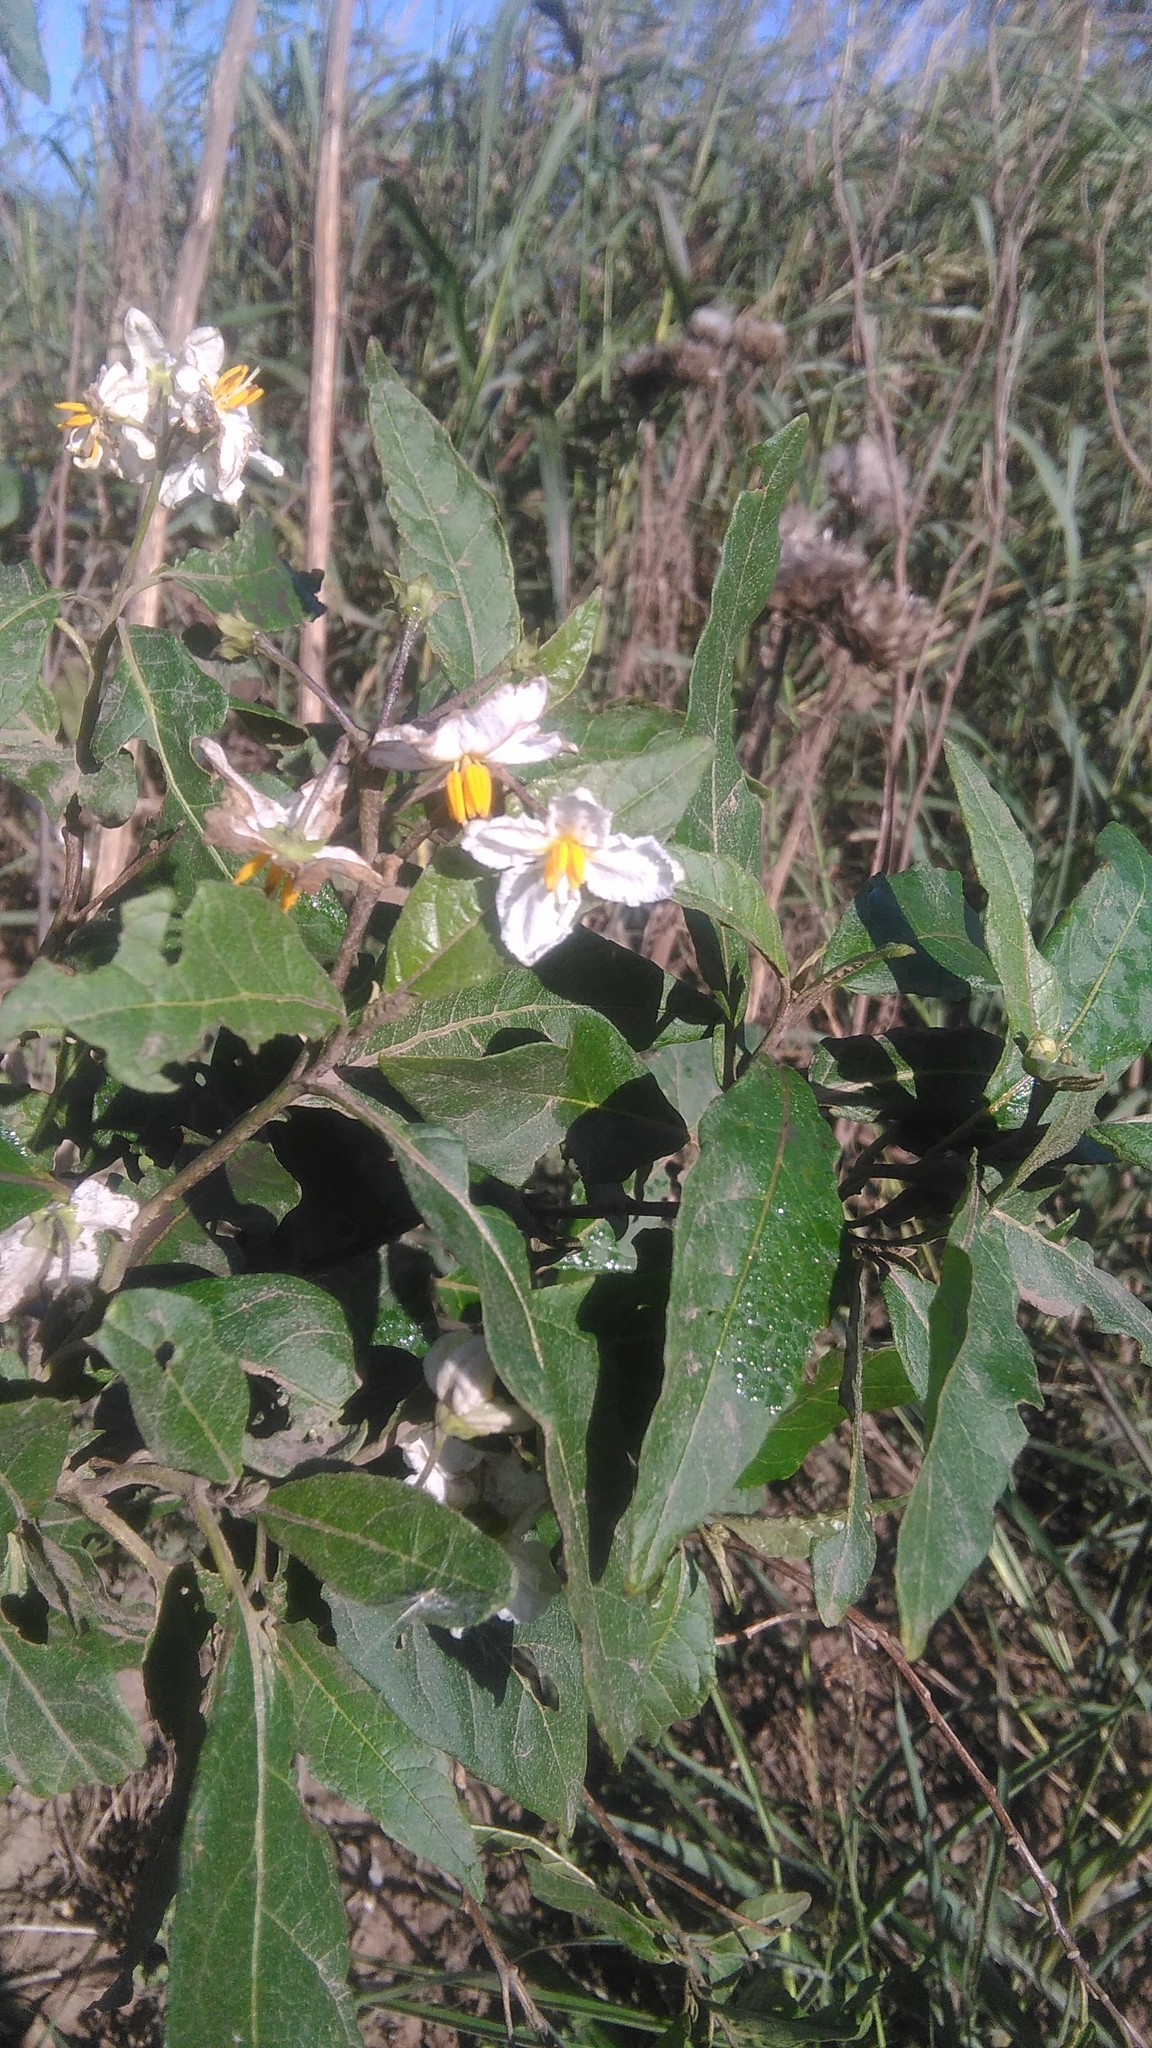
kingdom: Plantae
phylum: Tracheophyta
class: Magnoliopsida
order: Solanales
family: Solanaceae
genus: Solanum
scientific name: Solanum bonariense
